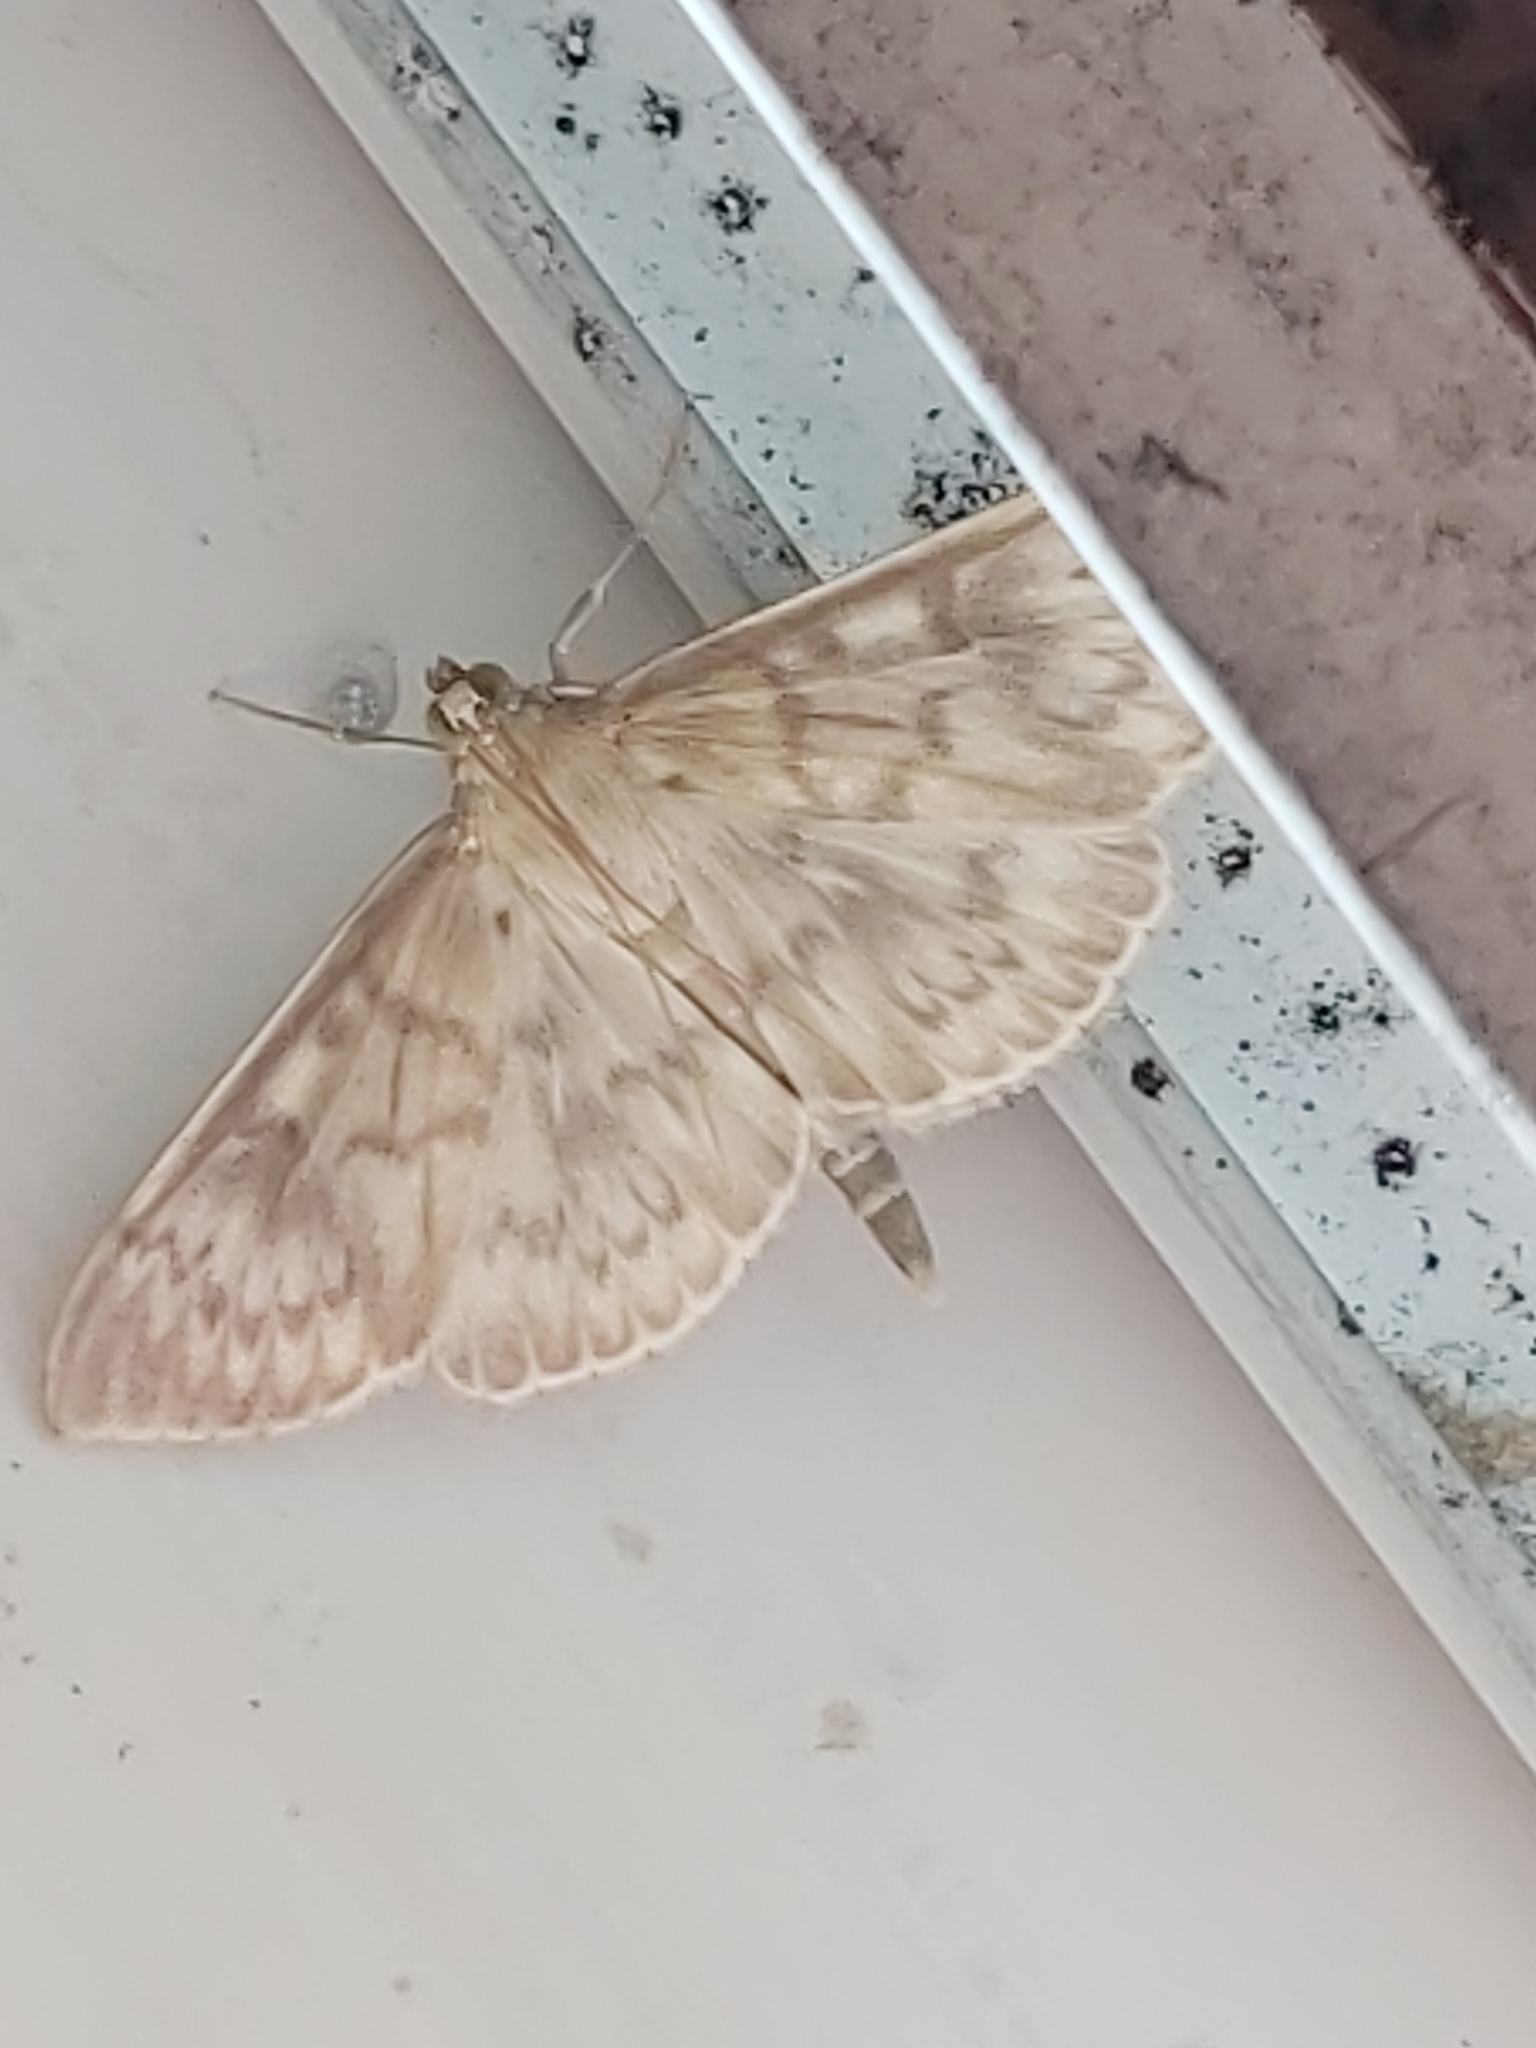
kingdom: Animalia
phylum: Arthropoda
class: Insecta
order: Lepidoptera
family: Crambidae
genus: Patania
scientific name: Patania ruralis
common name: Mother of pearl
